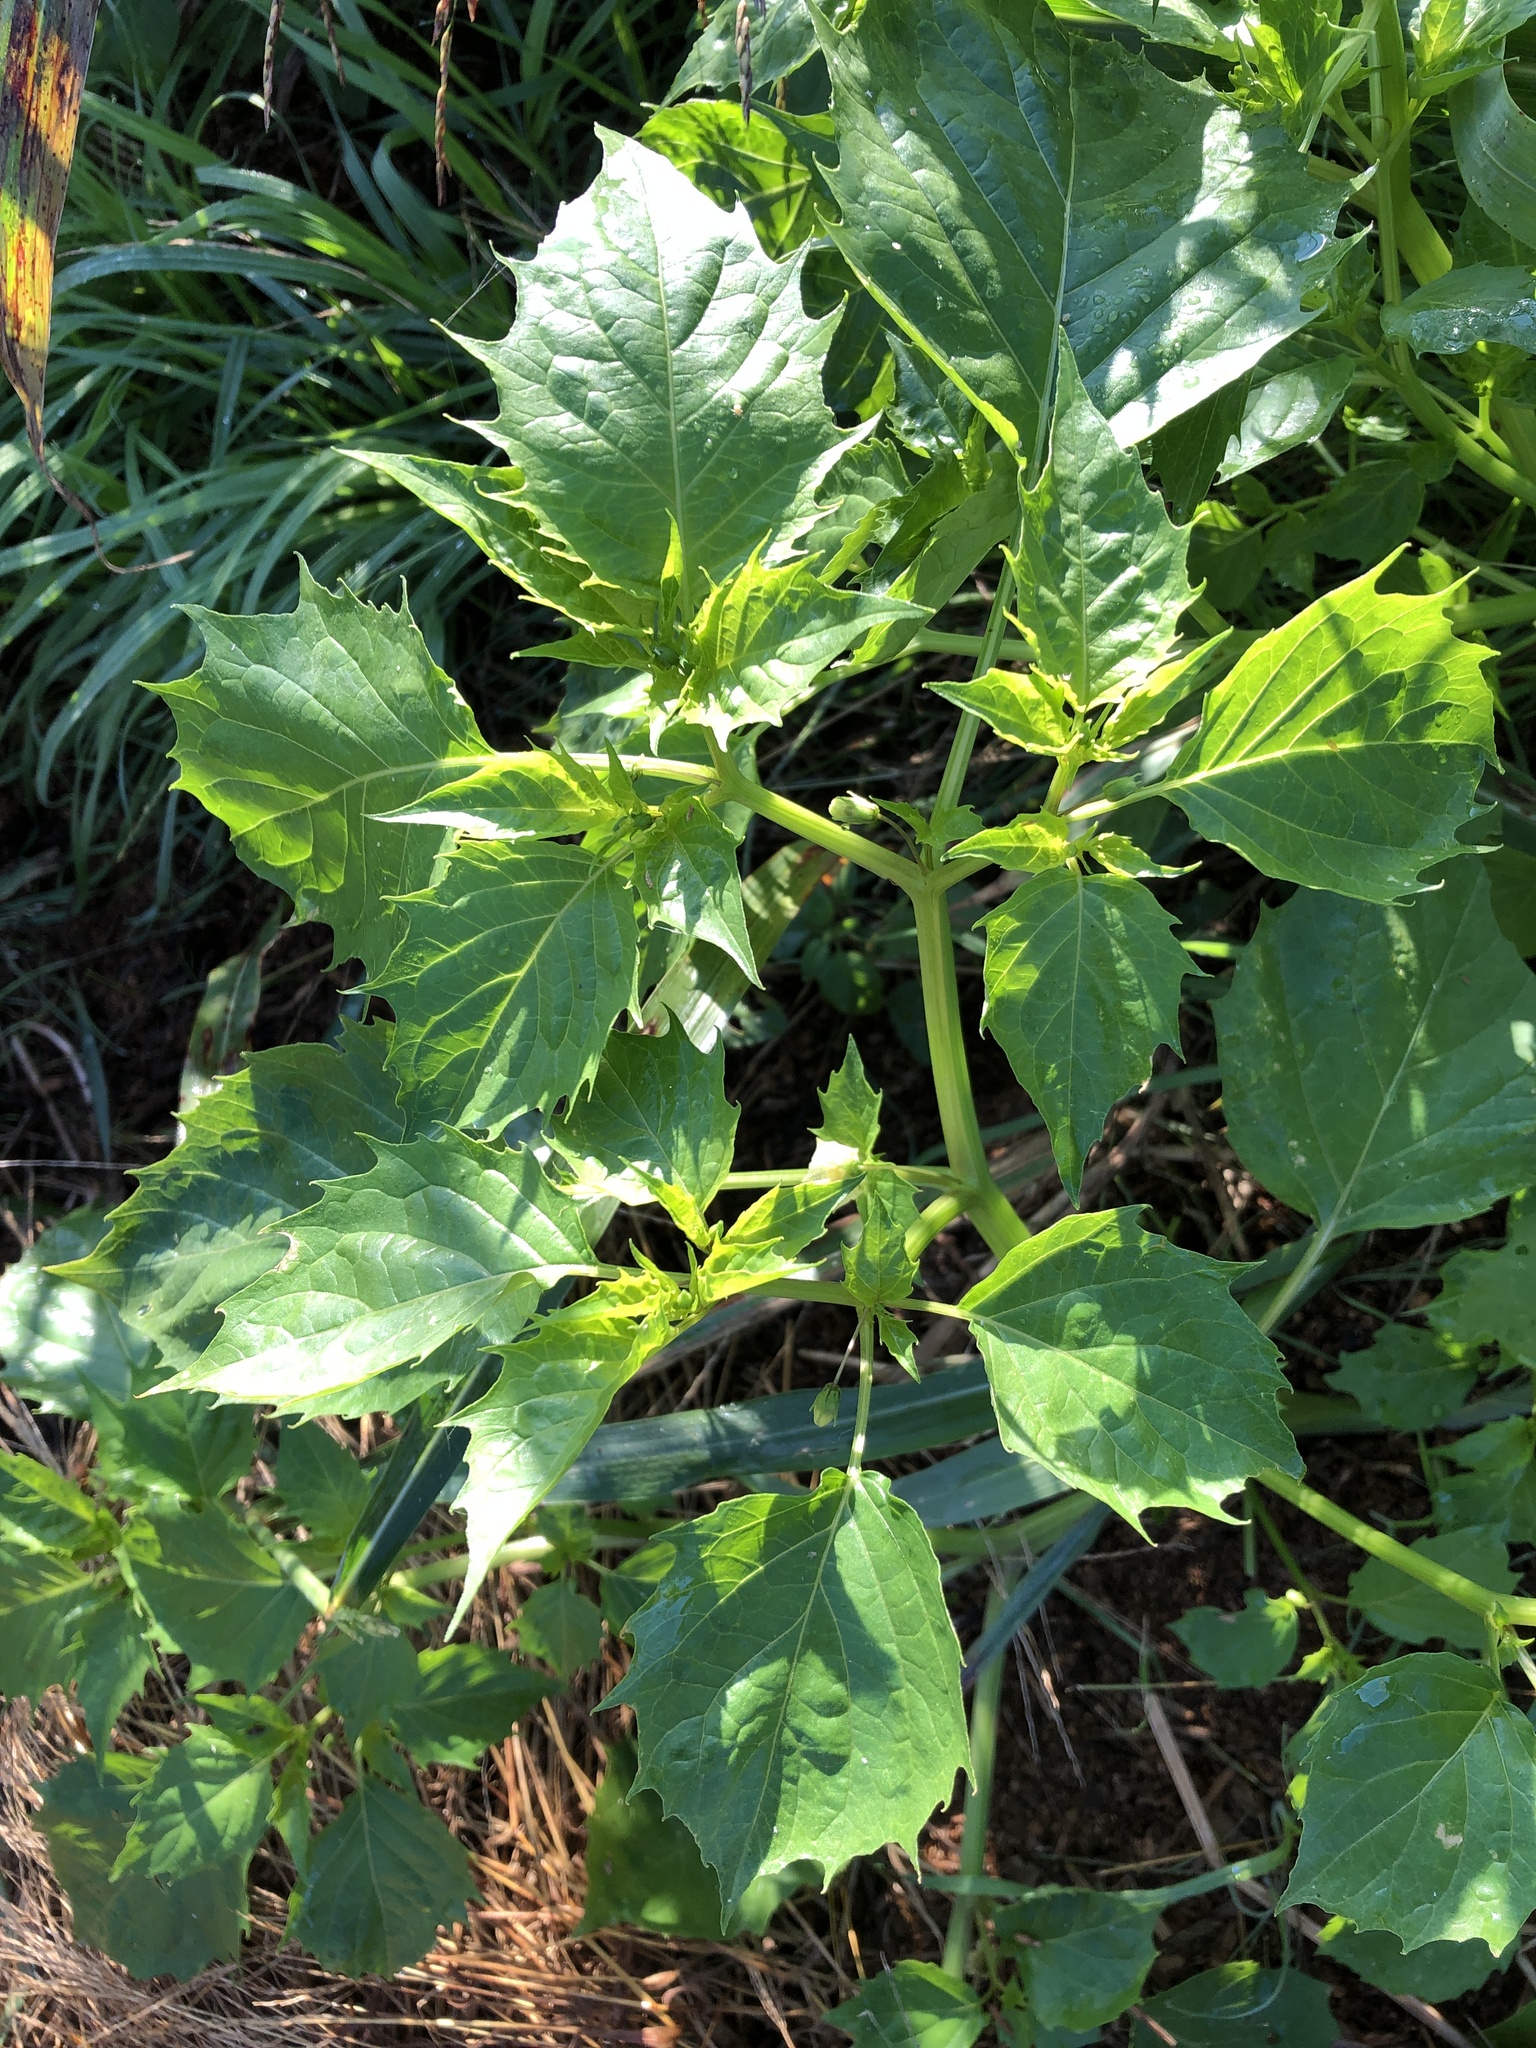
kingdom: Plantae
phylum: Tracheophyta
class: Magnoliopsida
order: Solanales
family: Solanaceae
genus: Physalis
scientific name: Physalis angulata
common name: Angular winter-cherry
